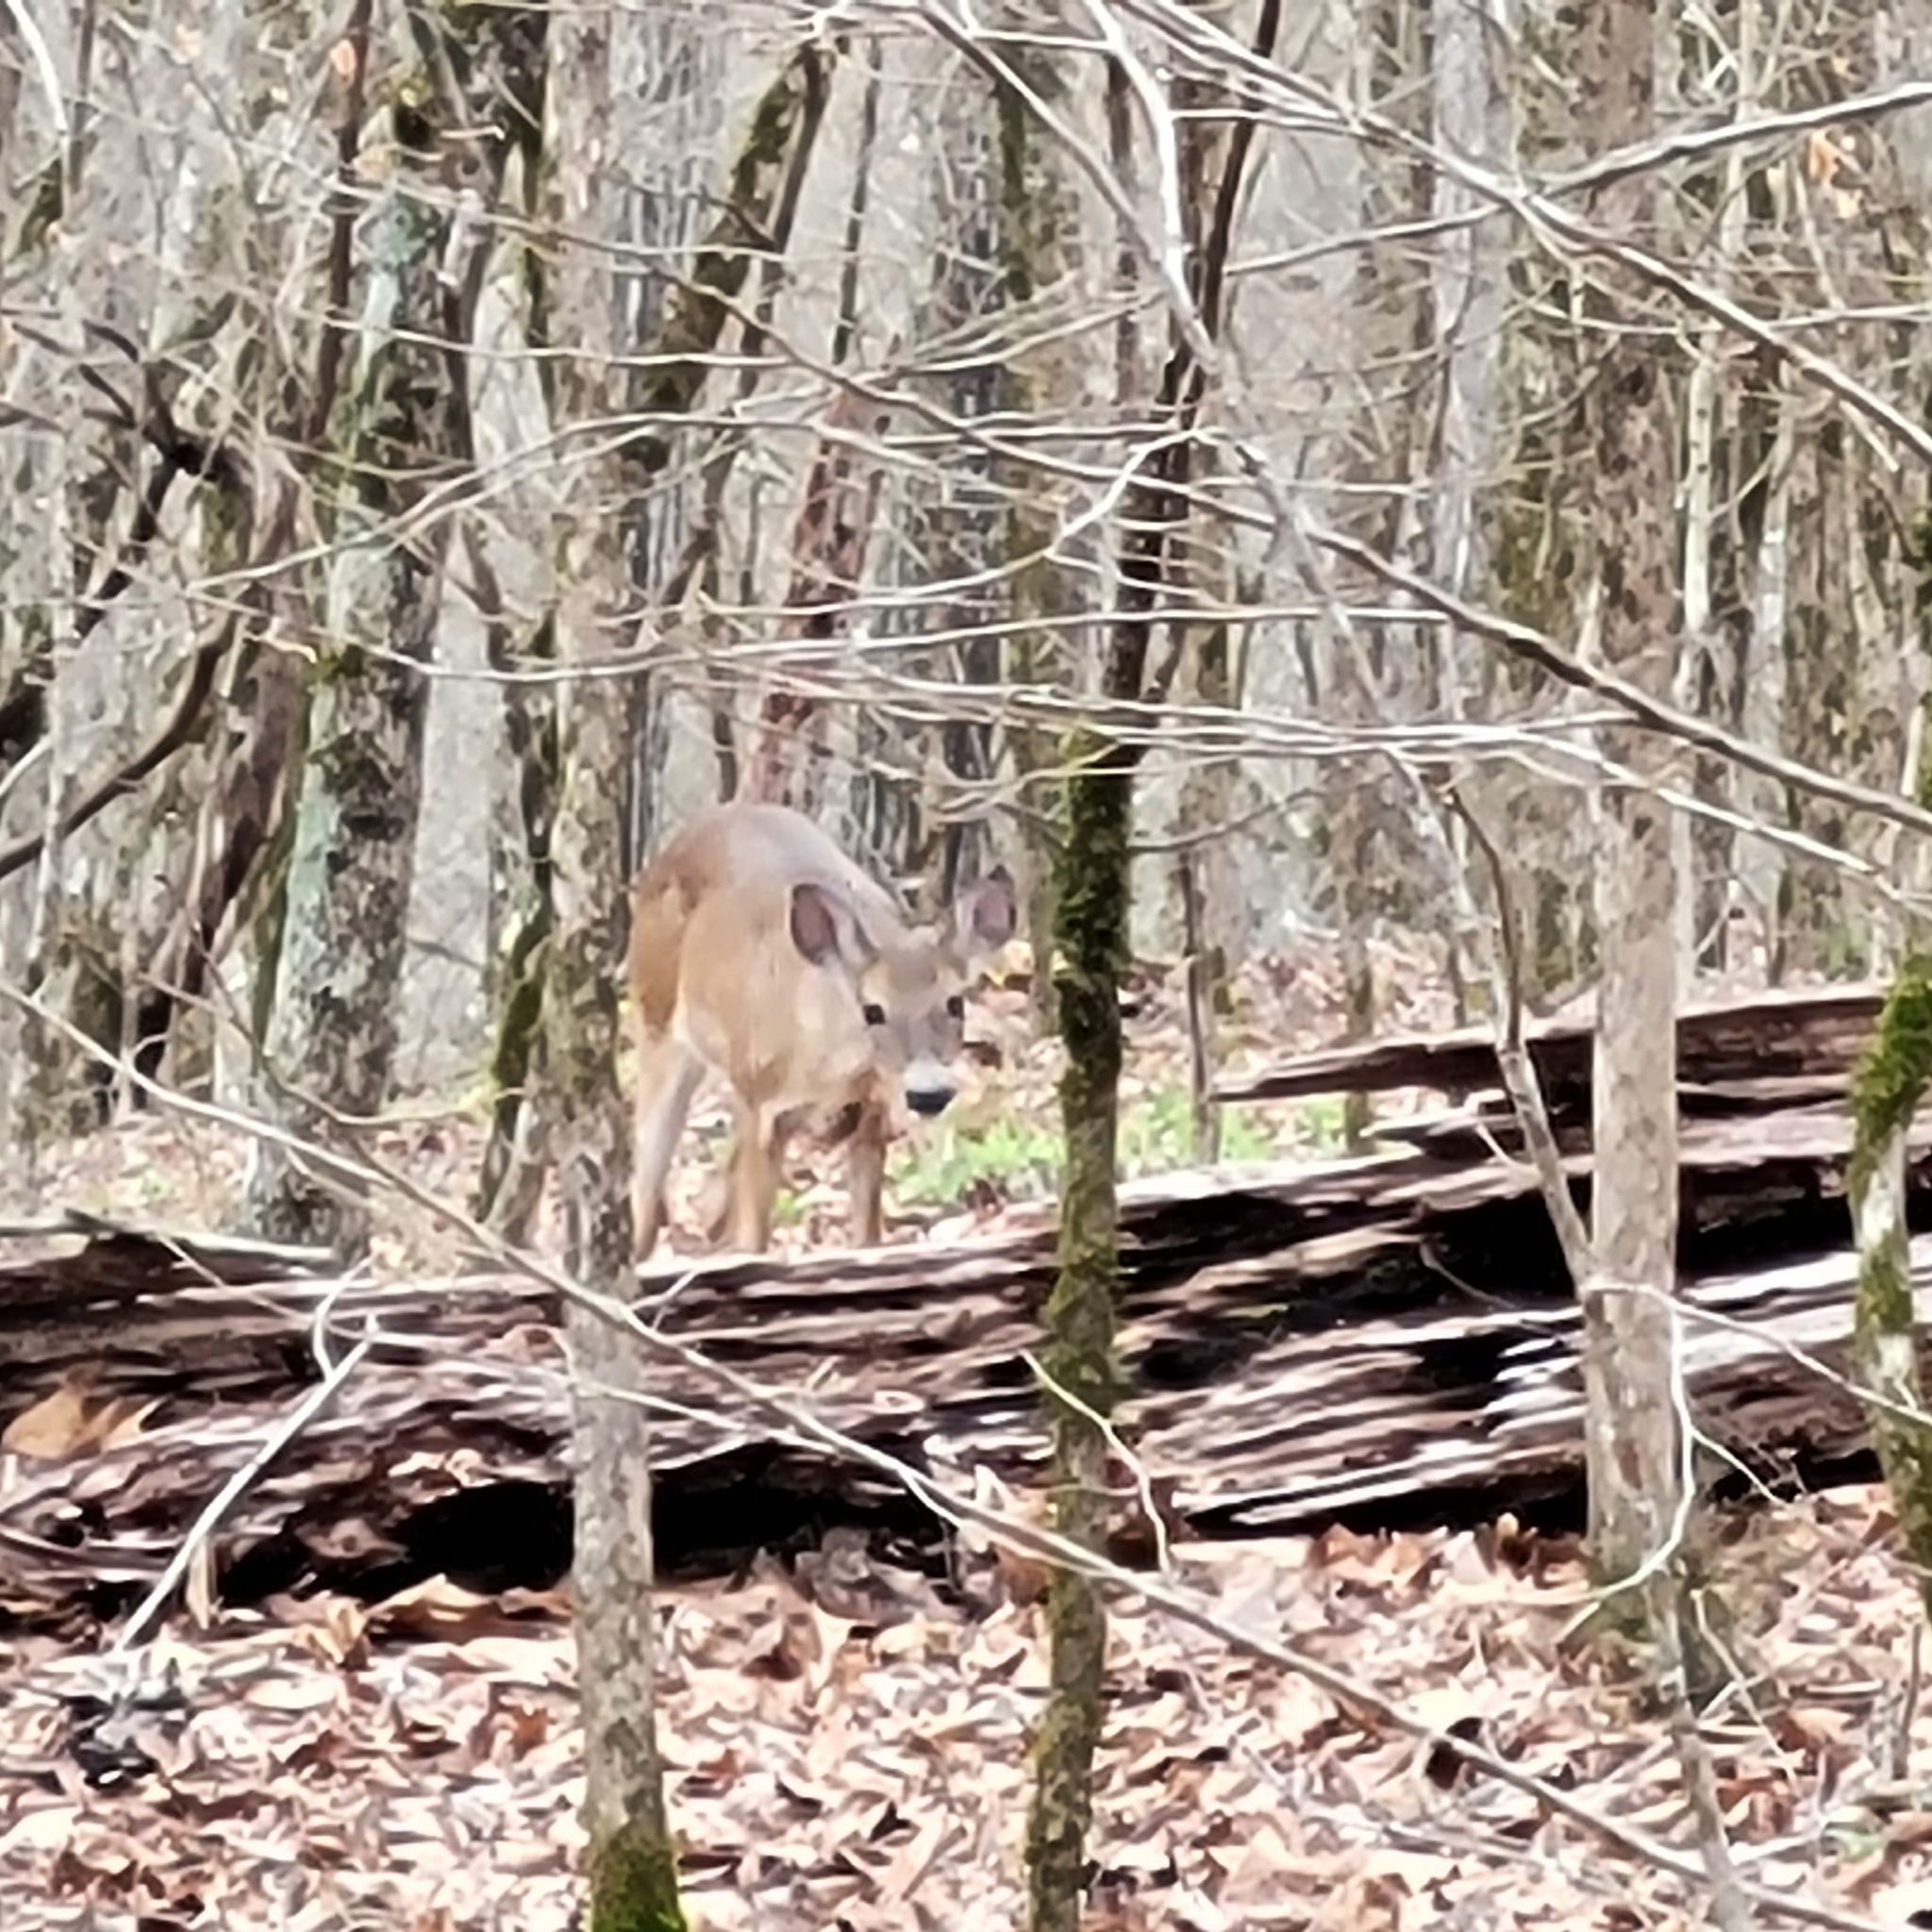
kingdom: Animalia
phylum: Chordata
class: Mammalia
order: Artiodactyla
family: Cervidae
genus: Odocoileus
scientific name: Odocoileus virginianus
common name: White-tailed deer
